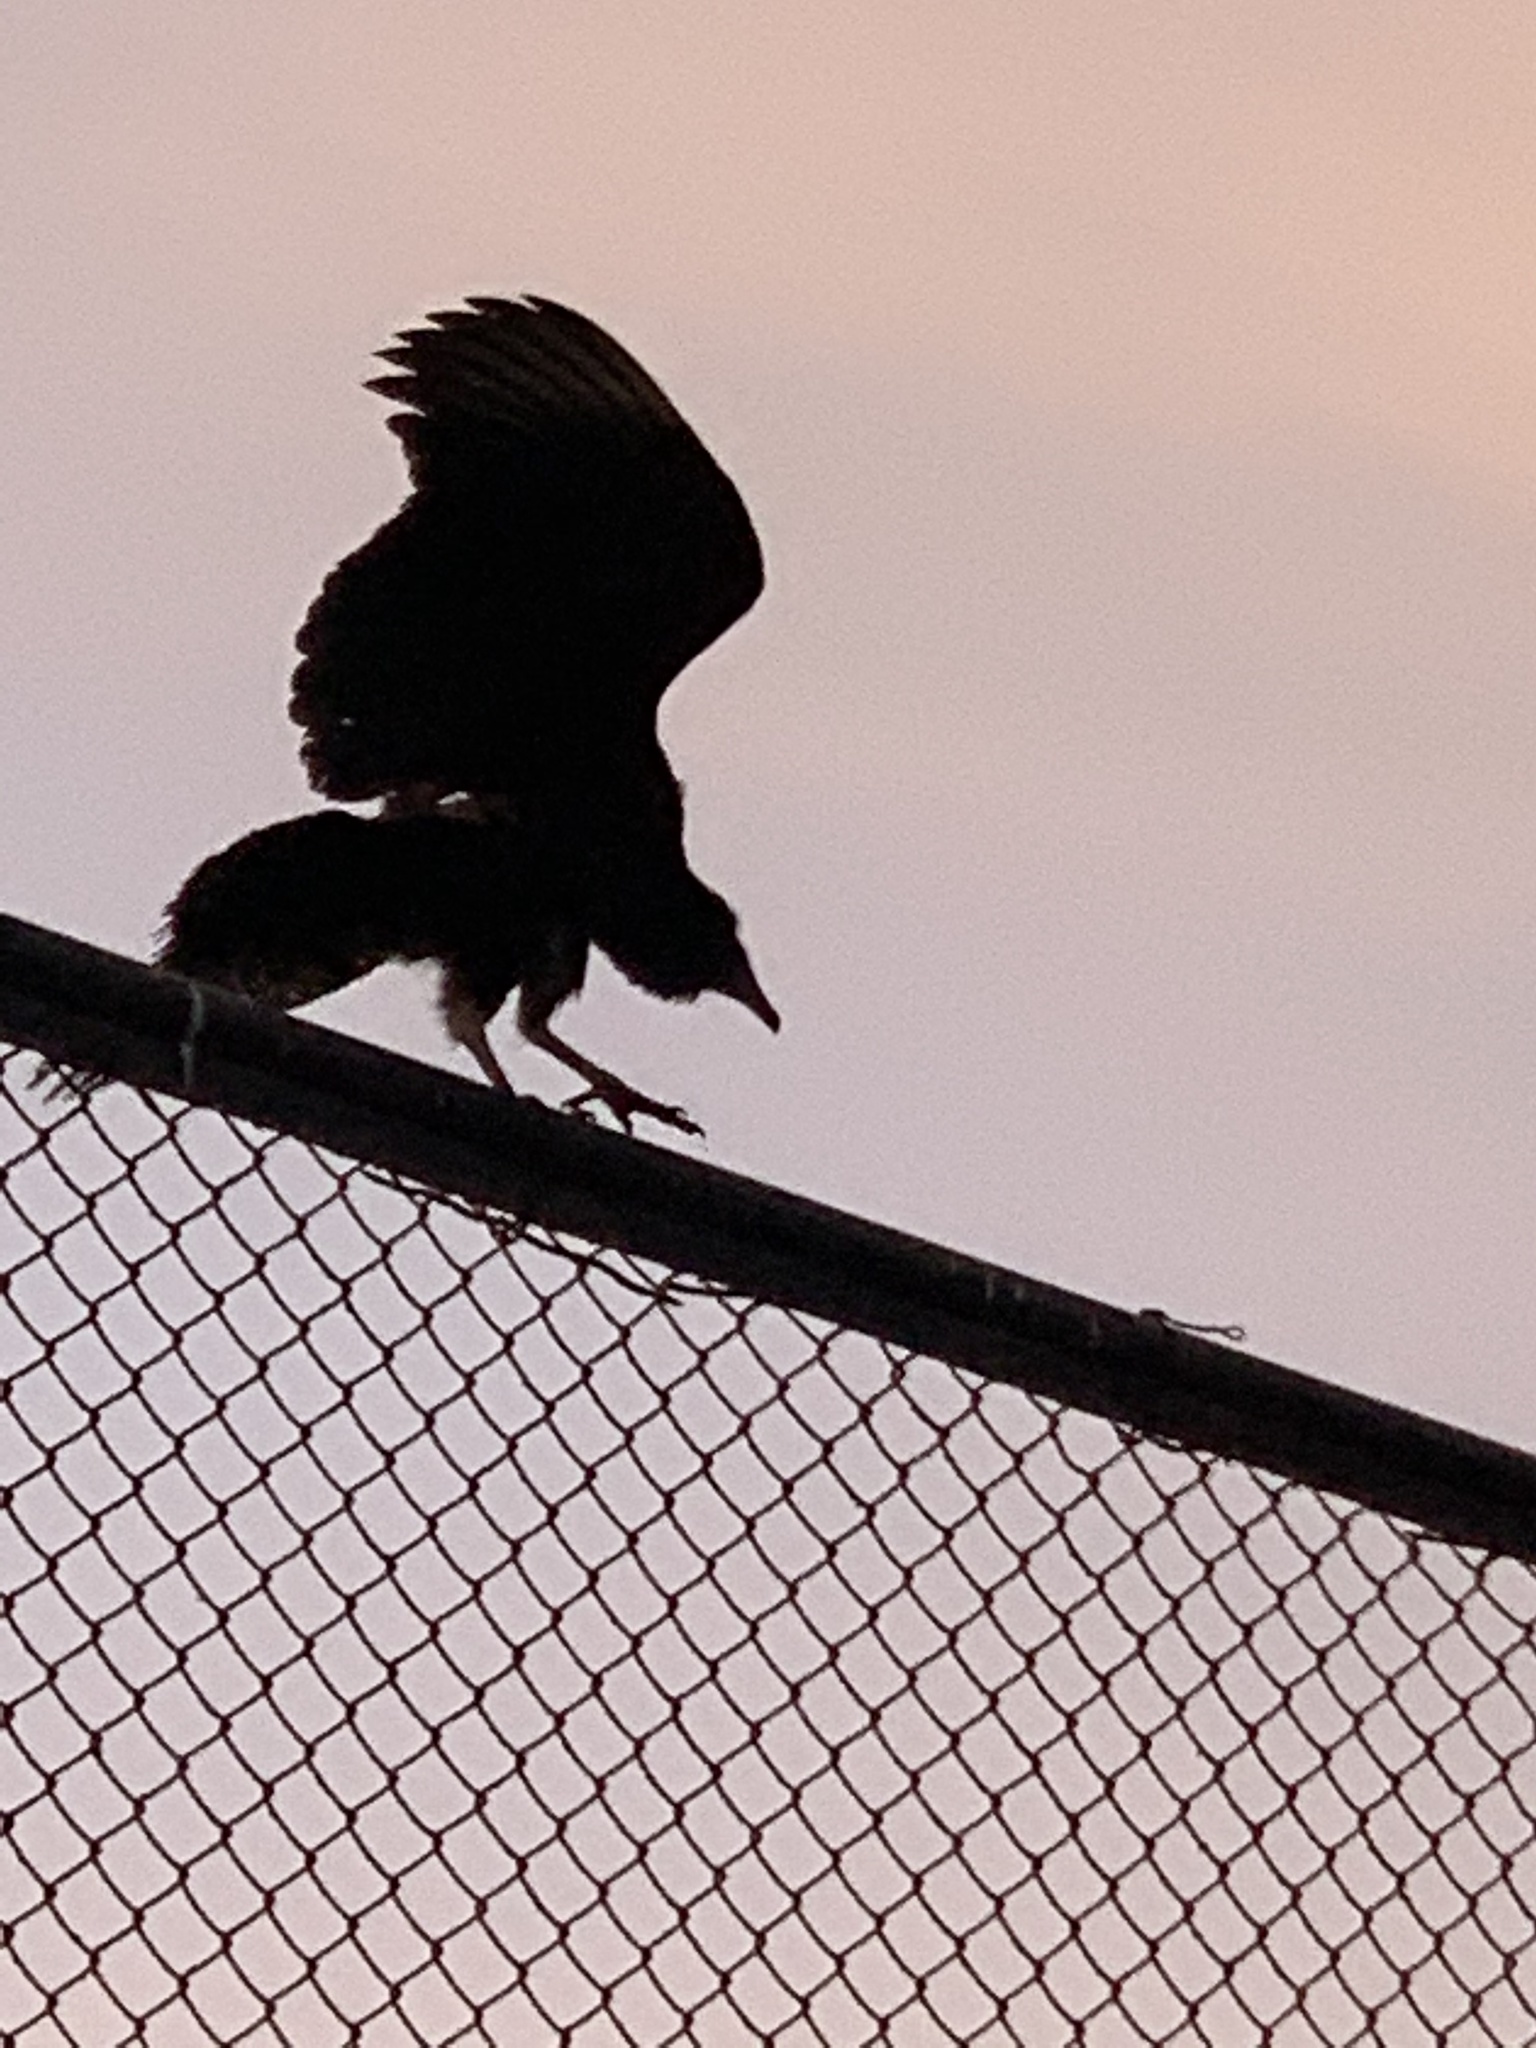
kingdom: Animalia
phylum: Chordata
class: Aves
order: Accipitriformes
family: Cathartidae
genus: Coragyps
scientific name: Coragyps atratus
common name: Black vulture
